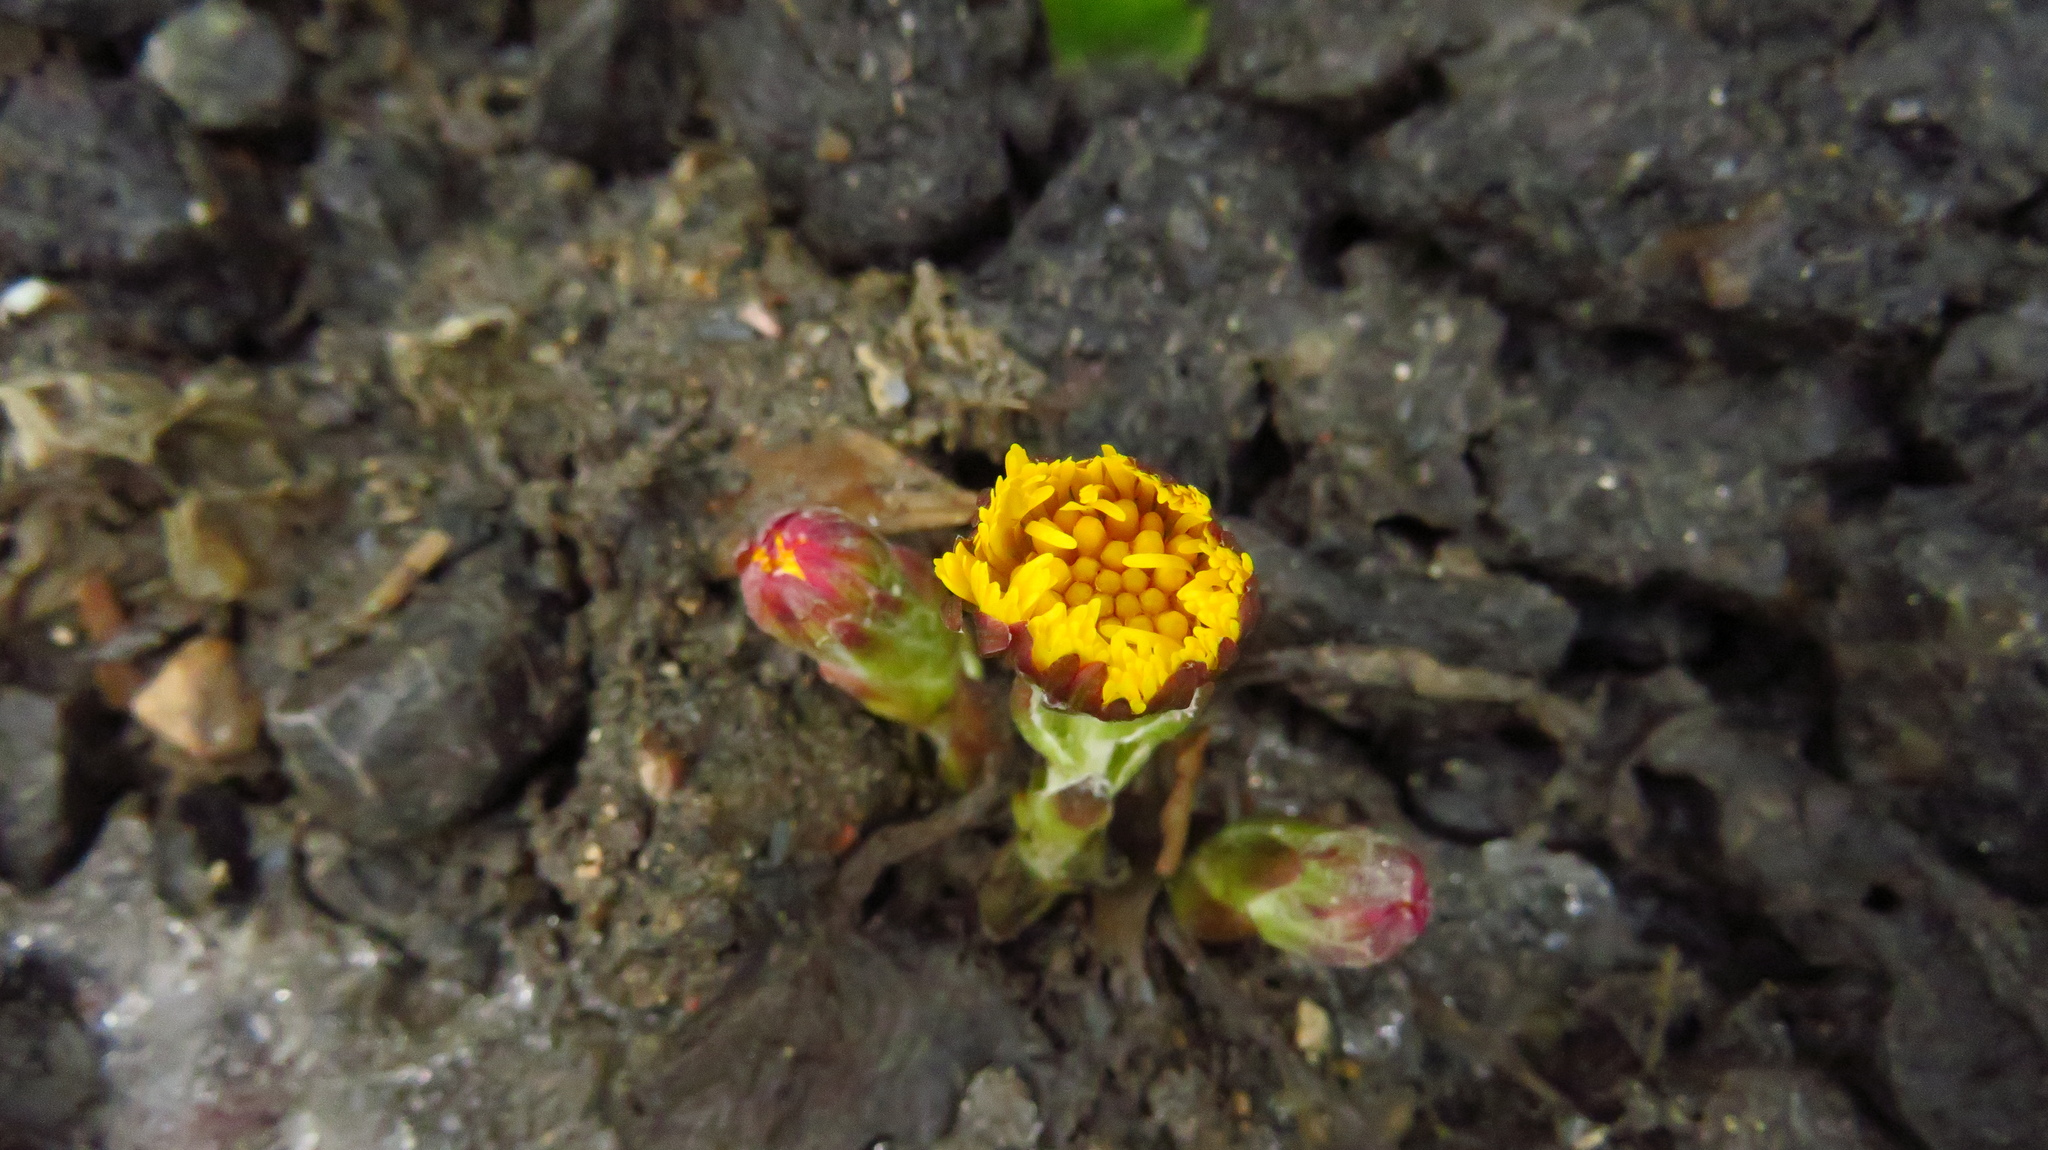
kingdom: Plantae
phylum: Tracheophyta
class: Magnoliopsida
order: Asterales
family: Asteraceae
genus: Tussilago
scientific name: Tussilago farfara
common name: Coltsfoot
